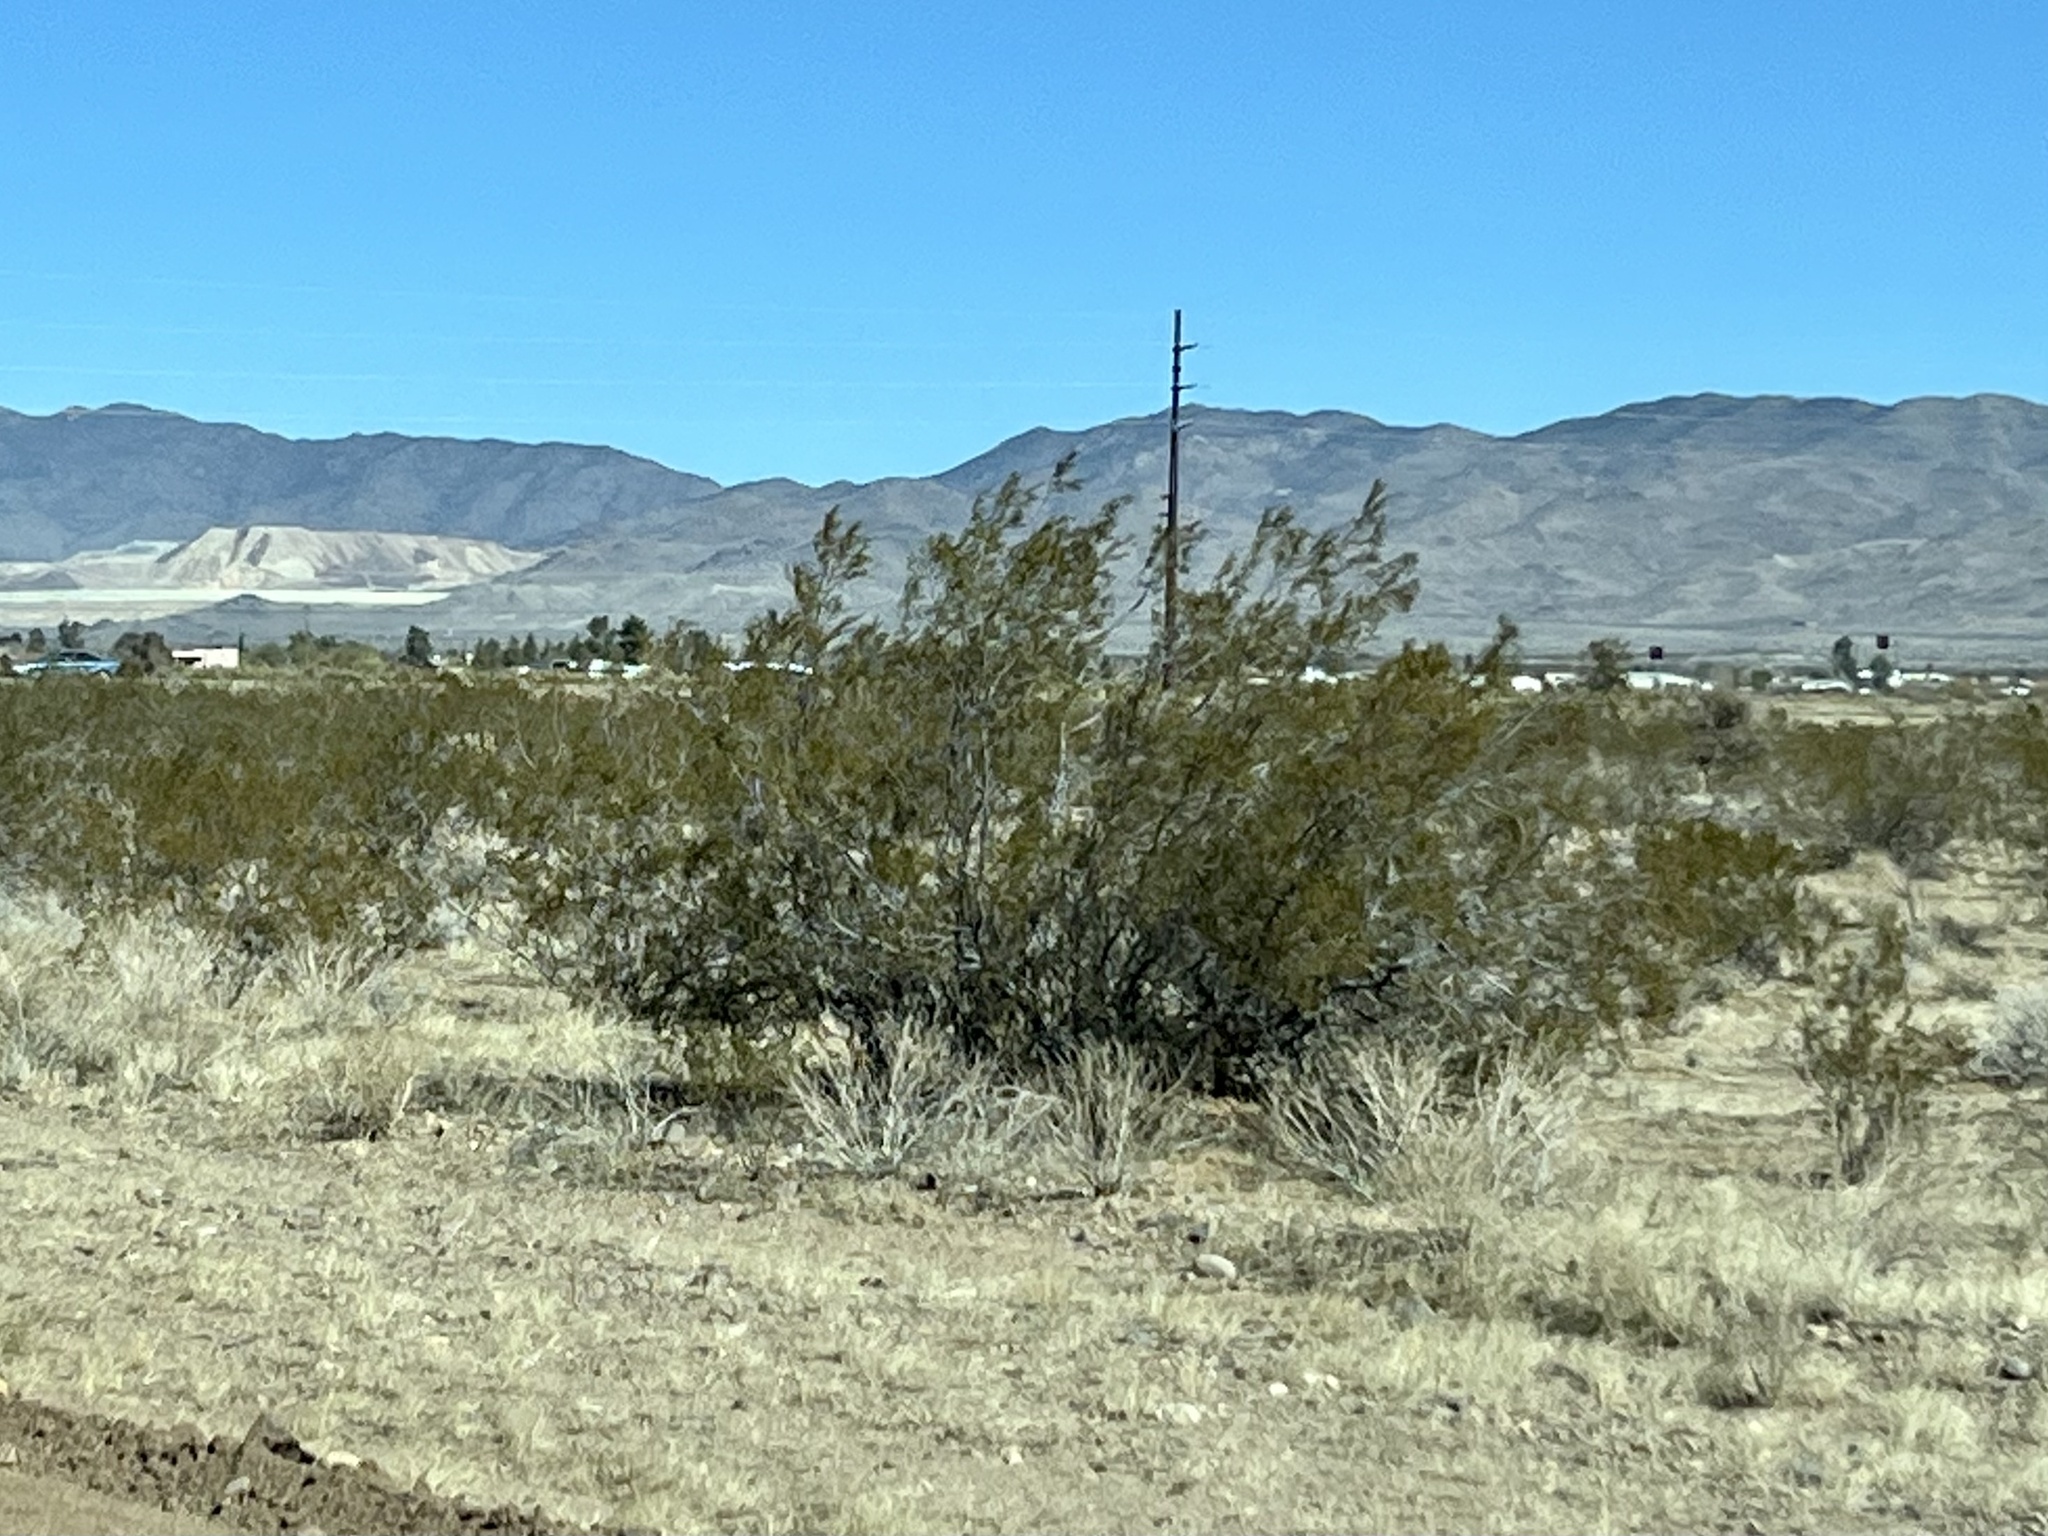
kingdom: Plantae
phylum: Tracheophyta
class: Magnoliopsida
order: Zygophyllales
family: Zygophyllaceae
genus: Larrea
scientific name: Larrea tridentata
